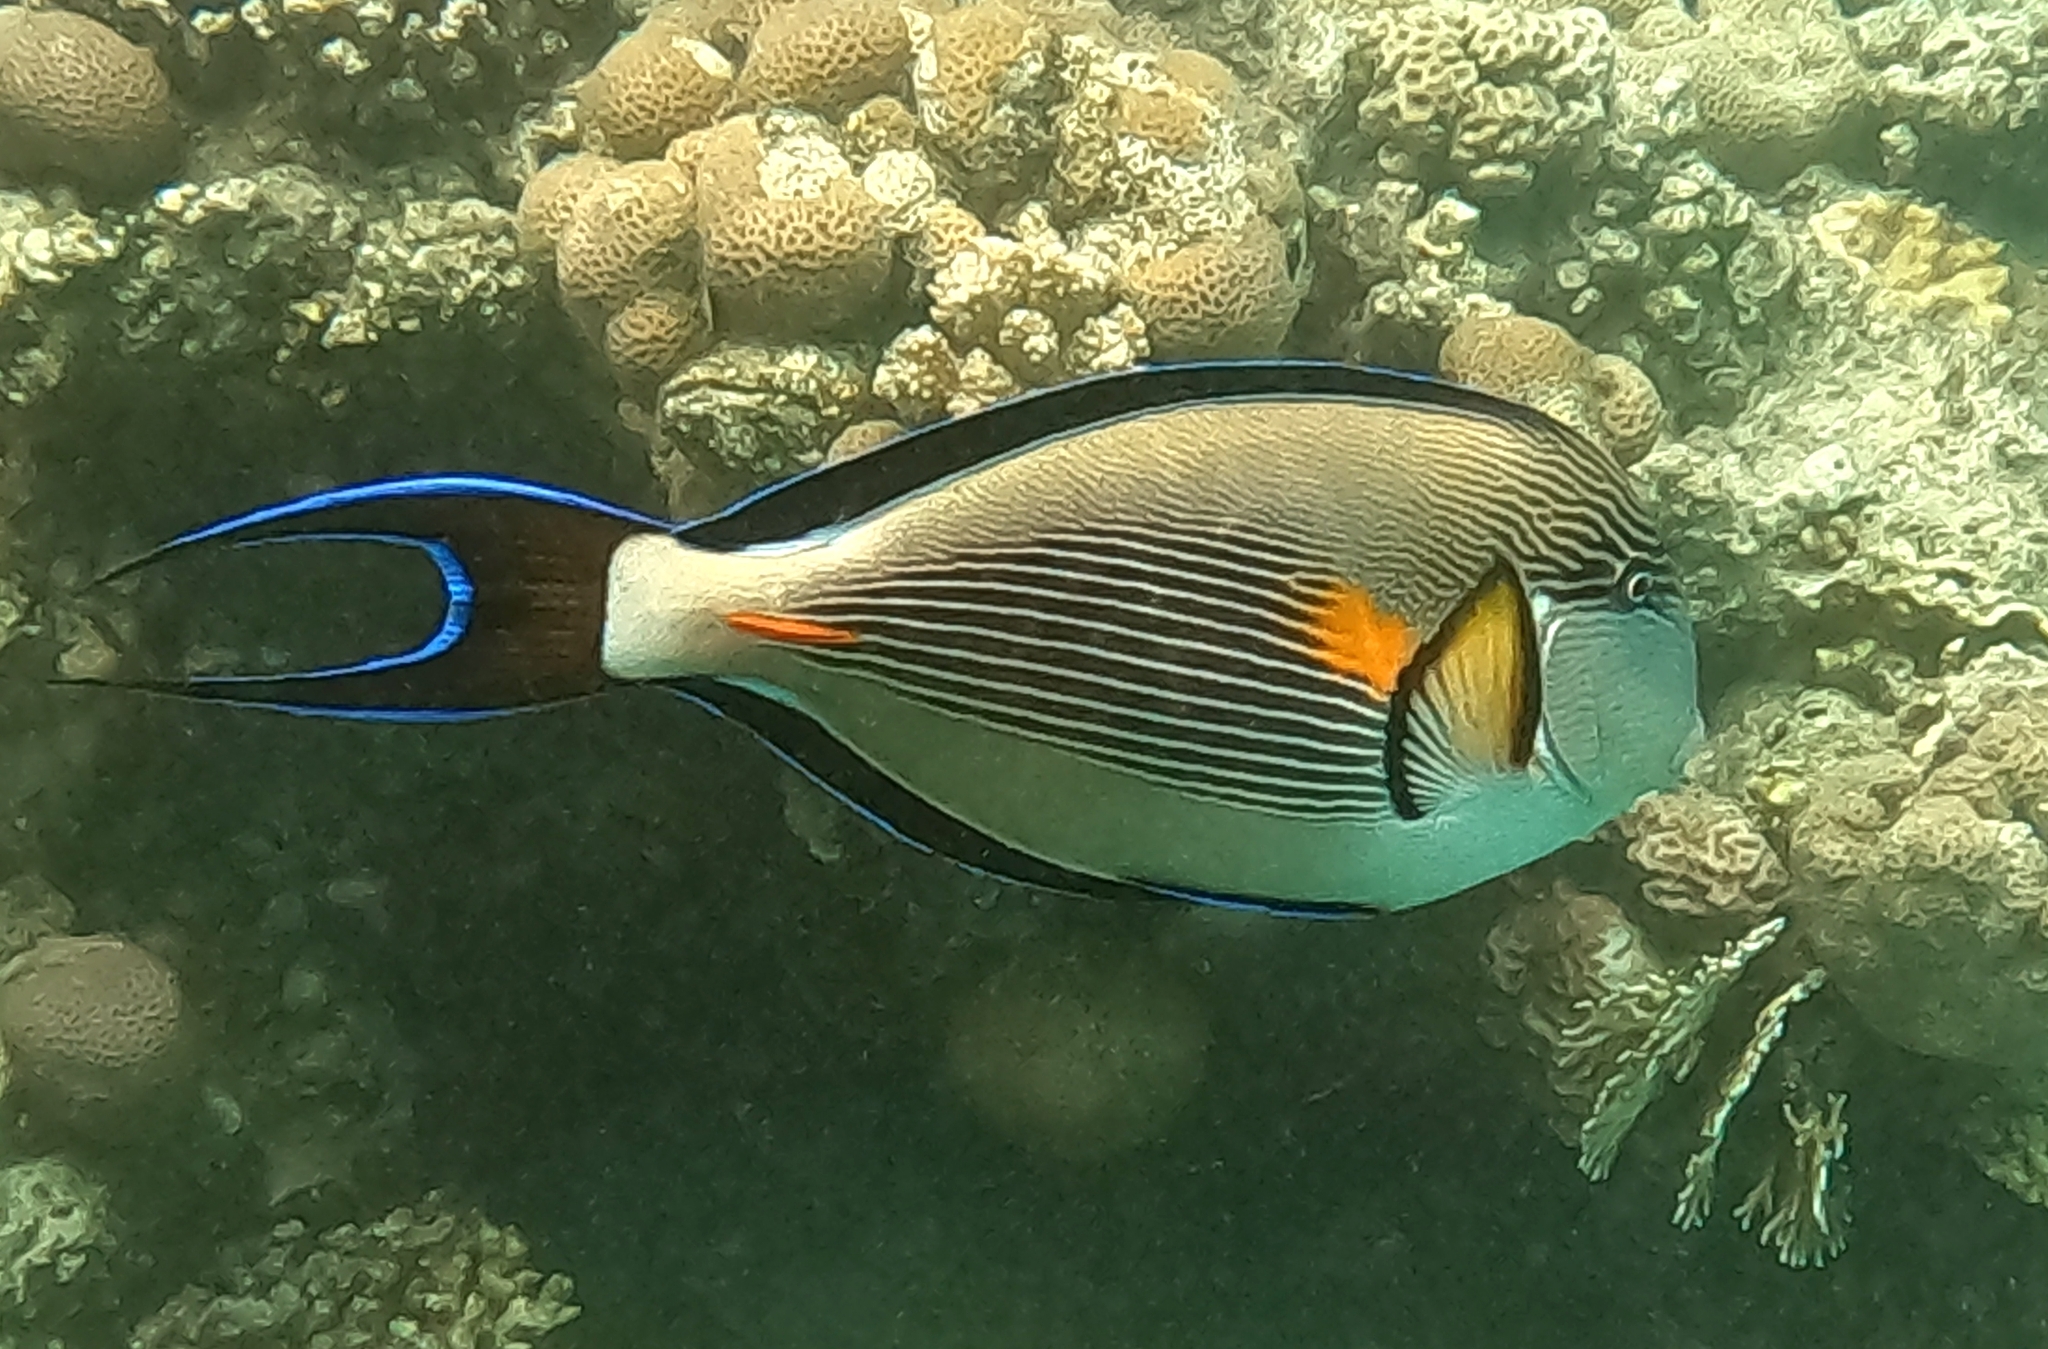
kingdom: Animalia
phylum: Chordata
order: Perciformes
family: Acanthuridae
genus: Acanthurus
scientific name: Acanthurus sohal
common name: Red sea surgeonfish
